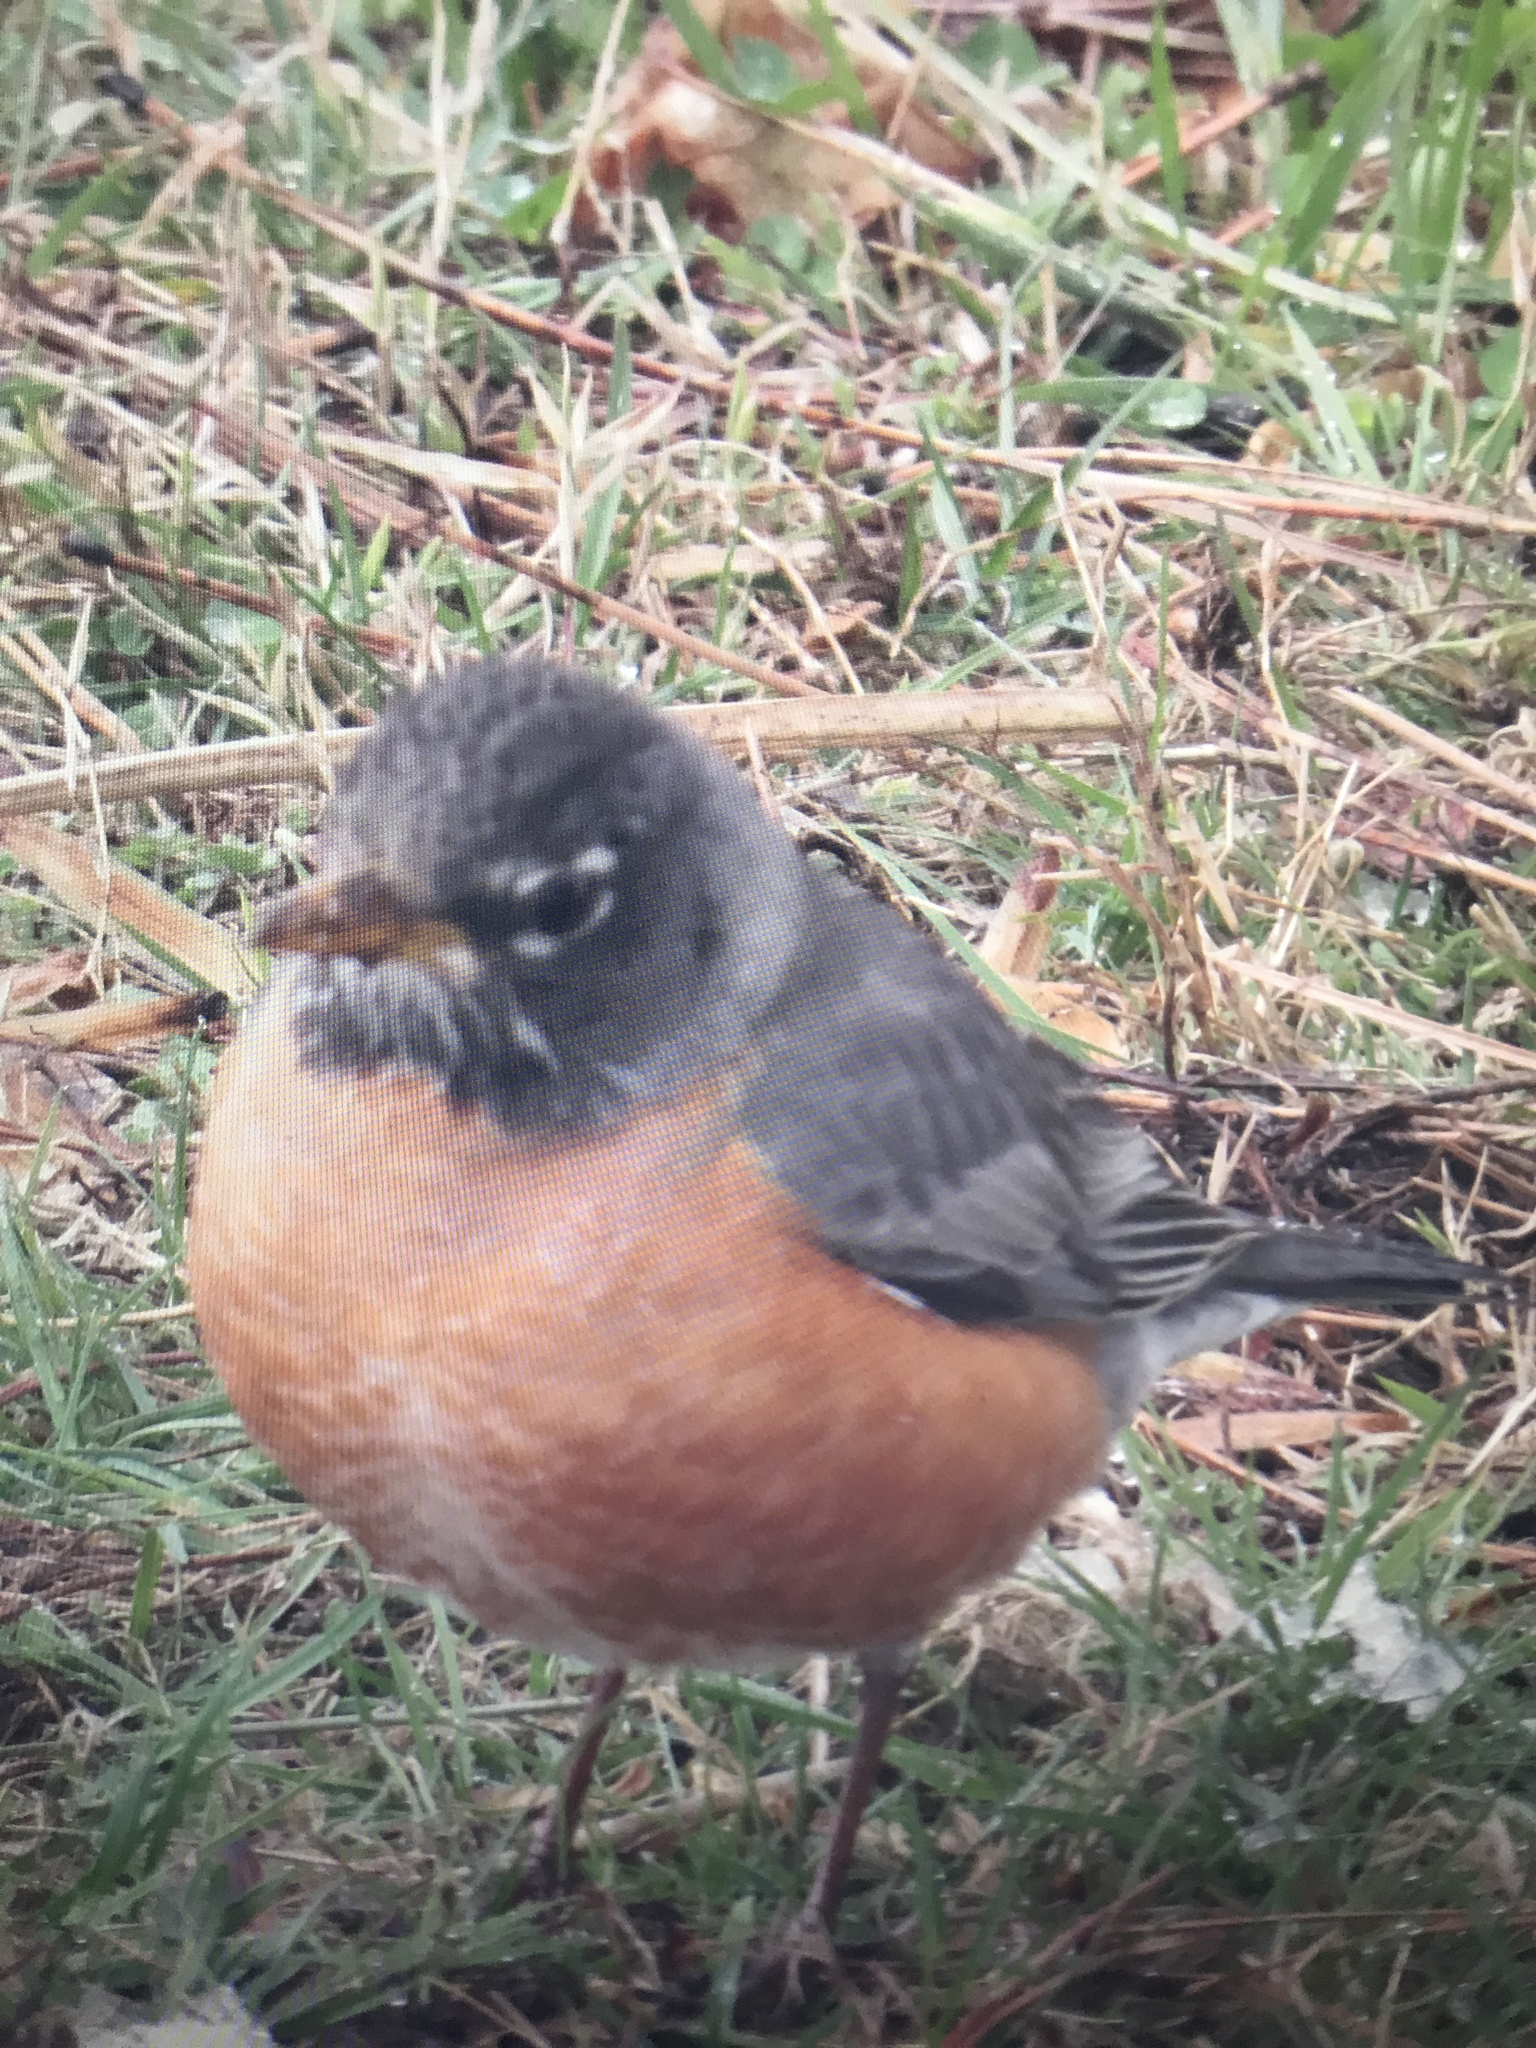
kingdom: Animalia
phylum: Chordata
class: Aves
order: Passeriformes
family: Turdidae
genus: Turdus
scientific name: Turdus migratorius
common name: American robin
